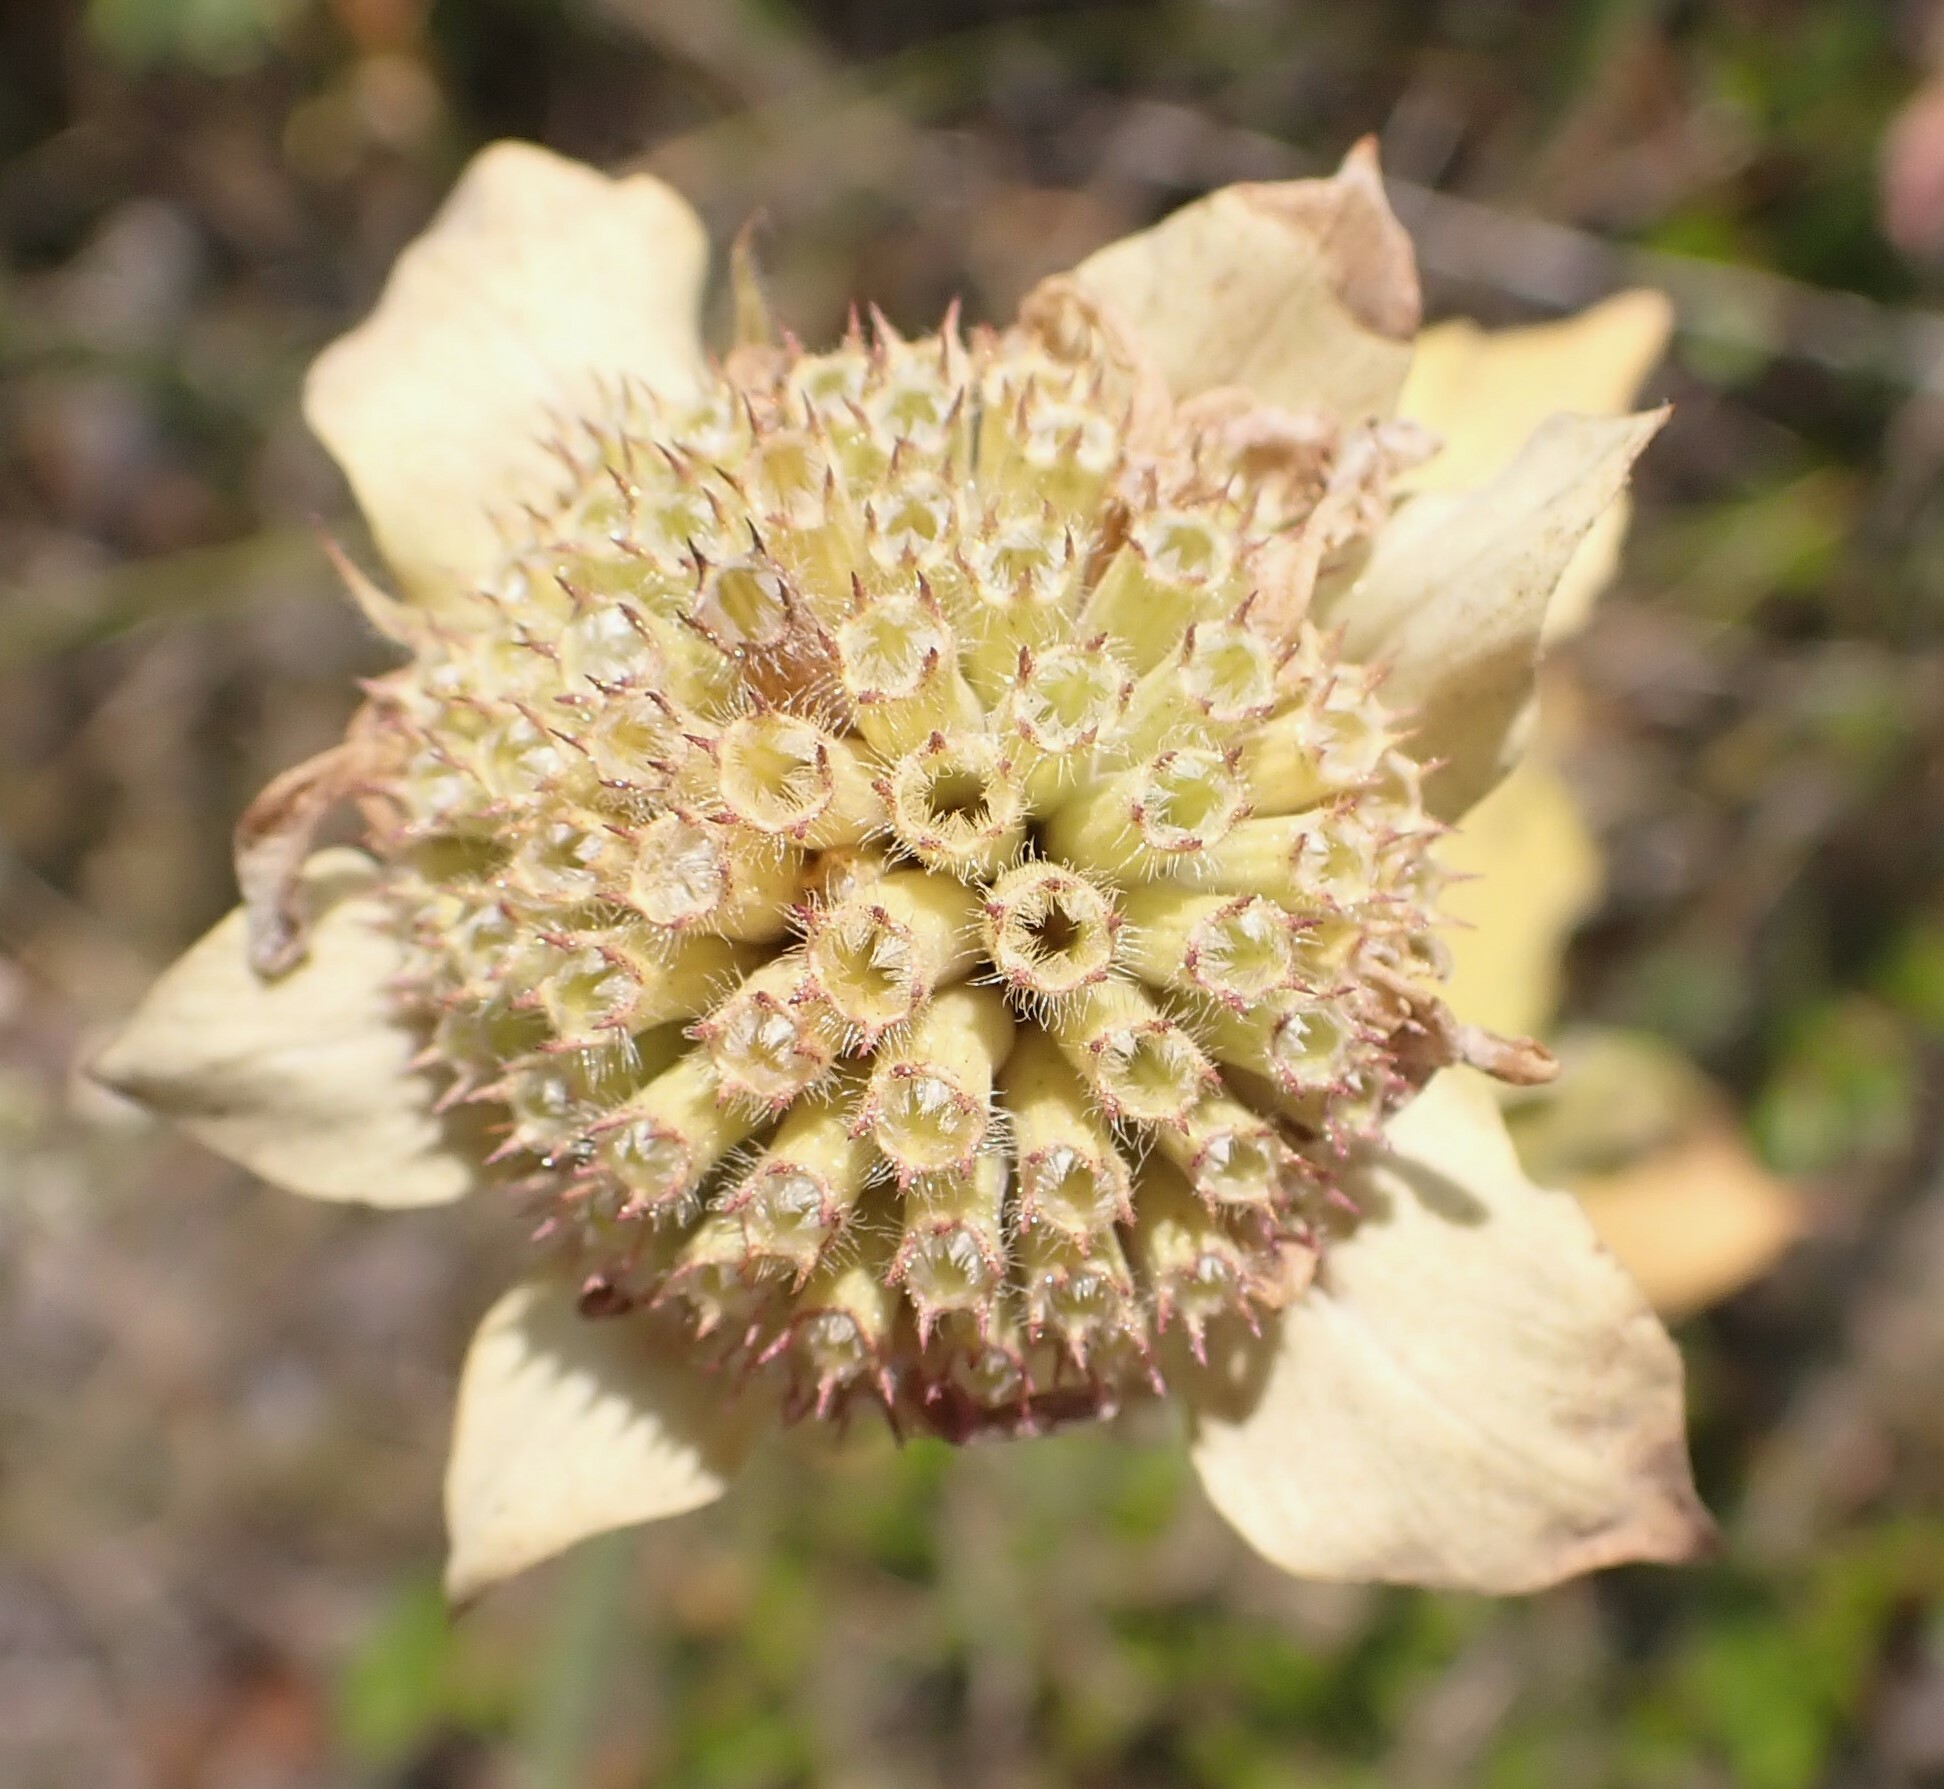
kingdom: Plantae
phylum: Tracheophyta
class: Magnoliopsida
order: Lamiales
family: Lamiaceae
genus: Monarda
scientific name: Monarda fistulosa
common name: Purple beebalm
